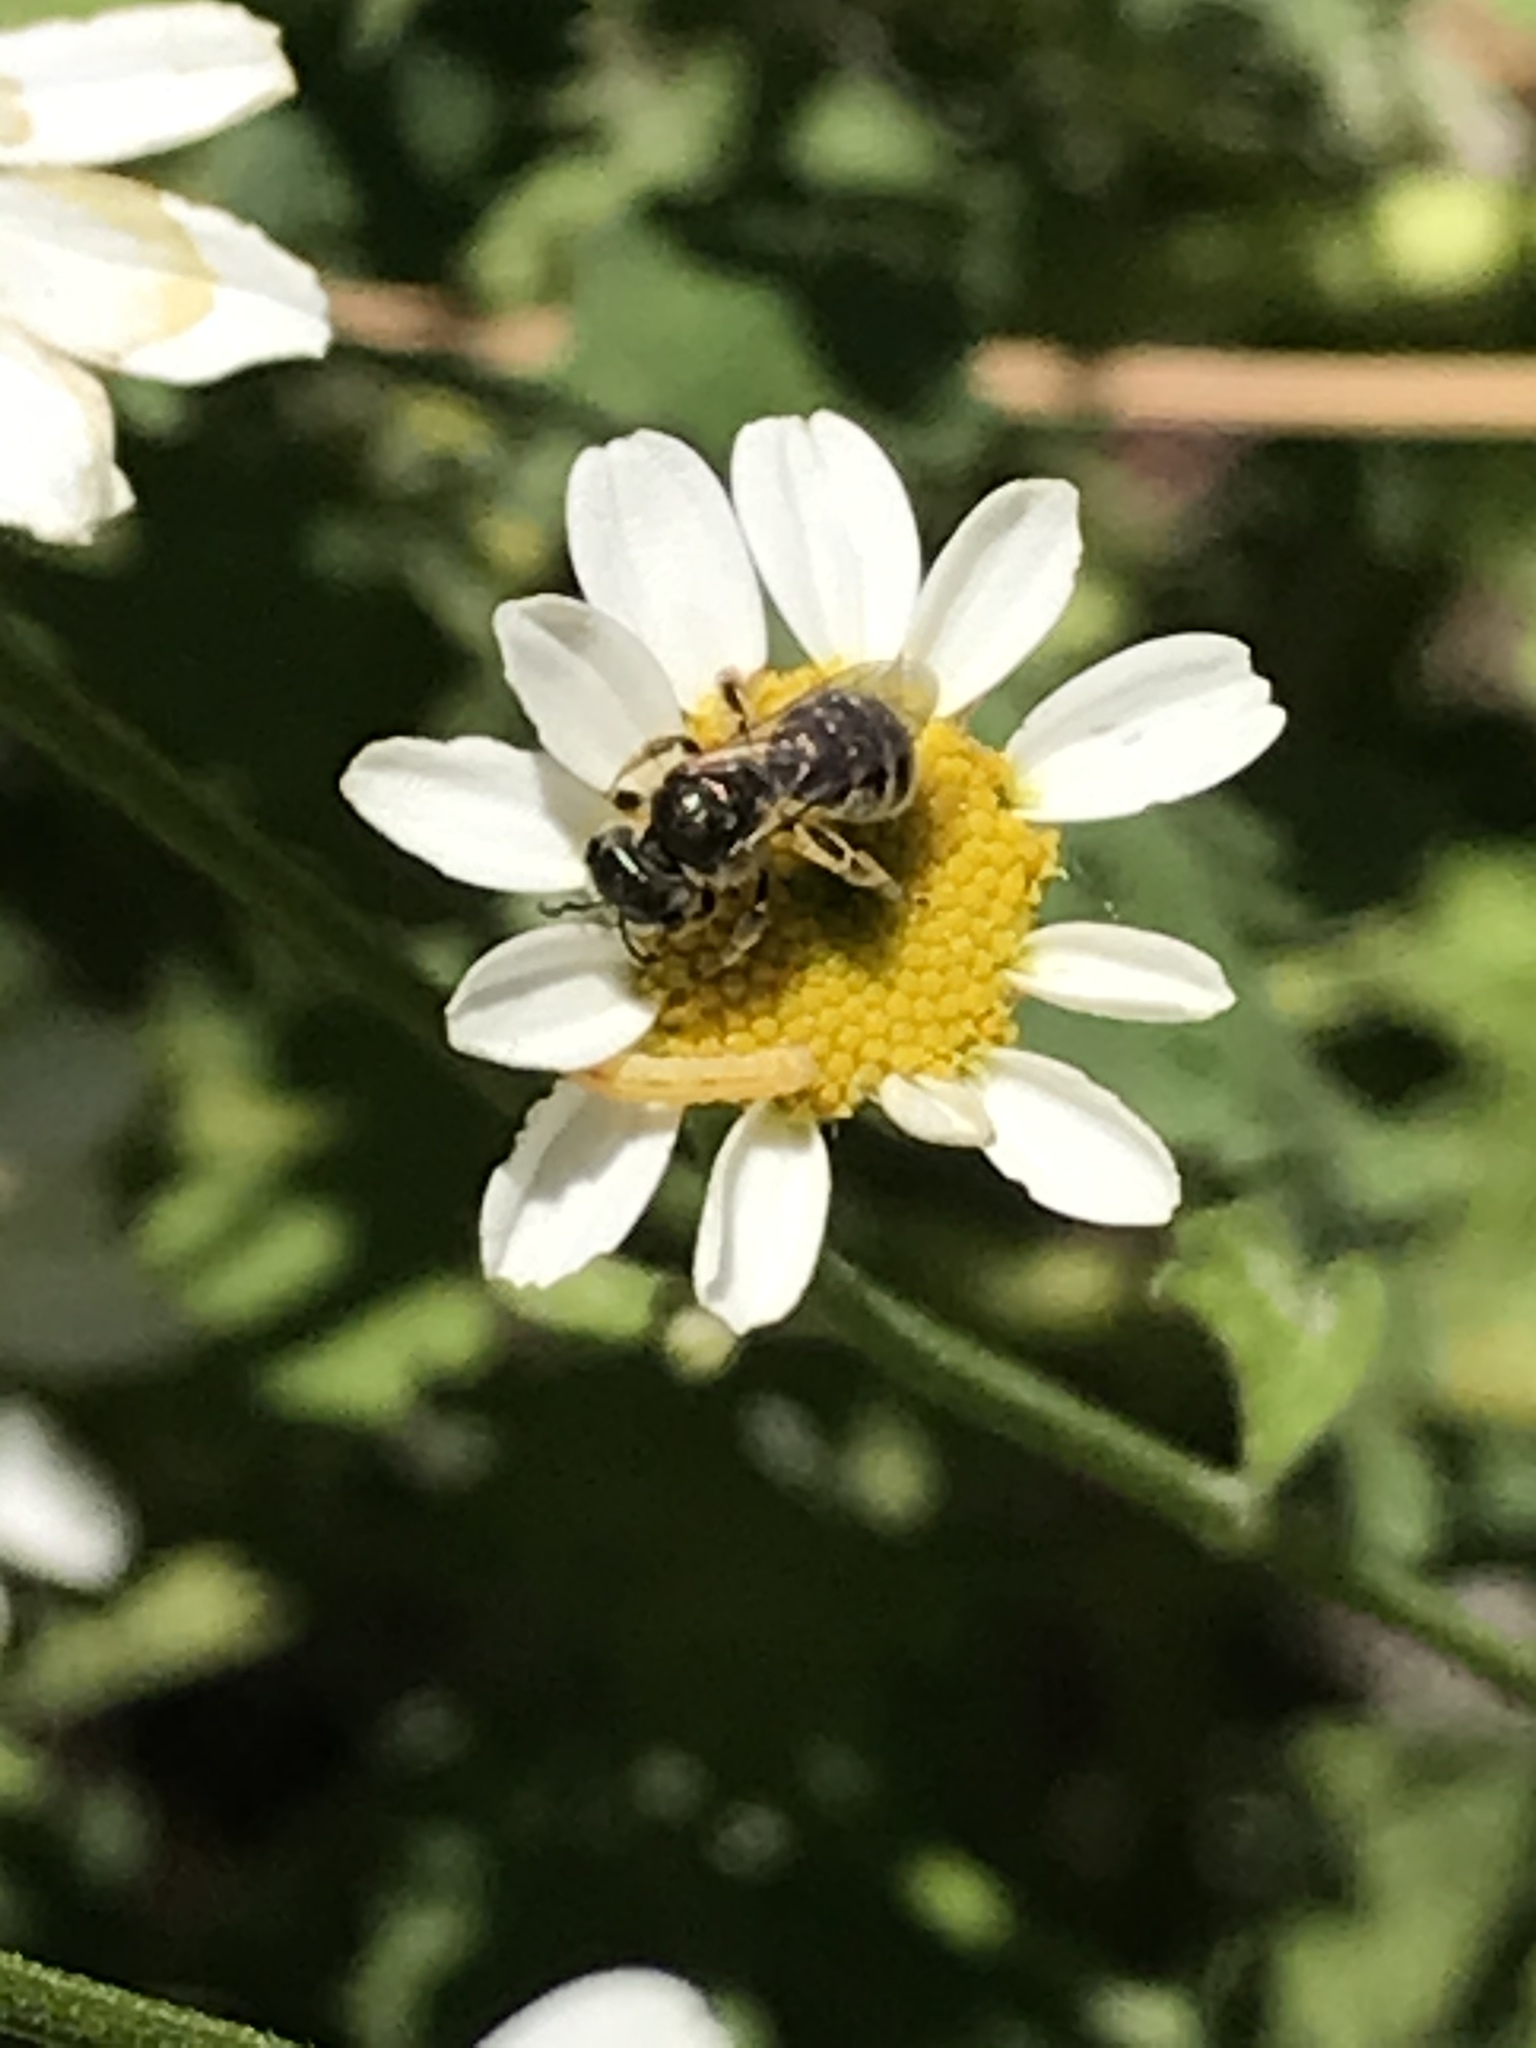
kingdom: Animalia
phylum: Arthropoda
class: Insecta
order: Hymenoptera
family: Halictidae
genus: Halictus
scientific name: Halictus tripartitus
